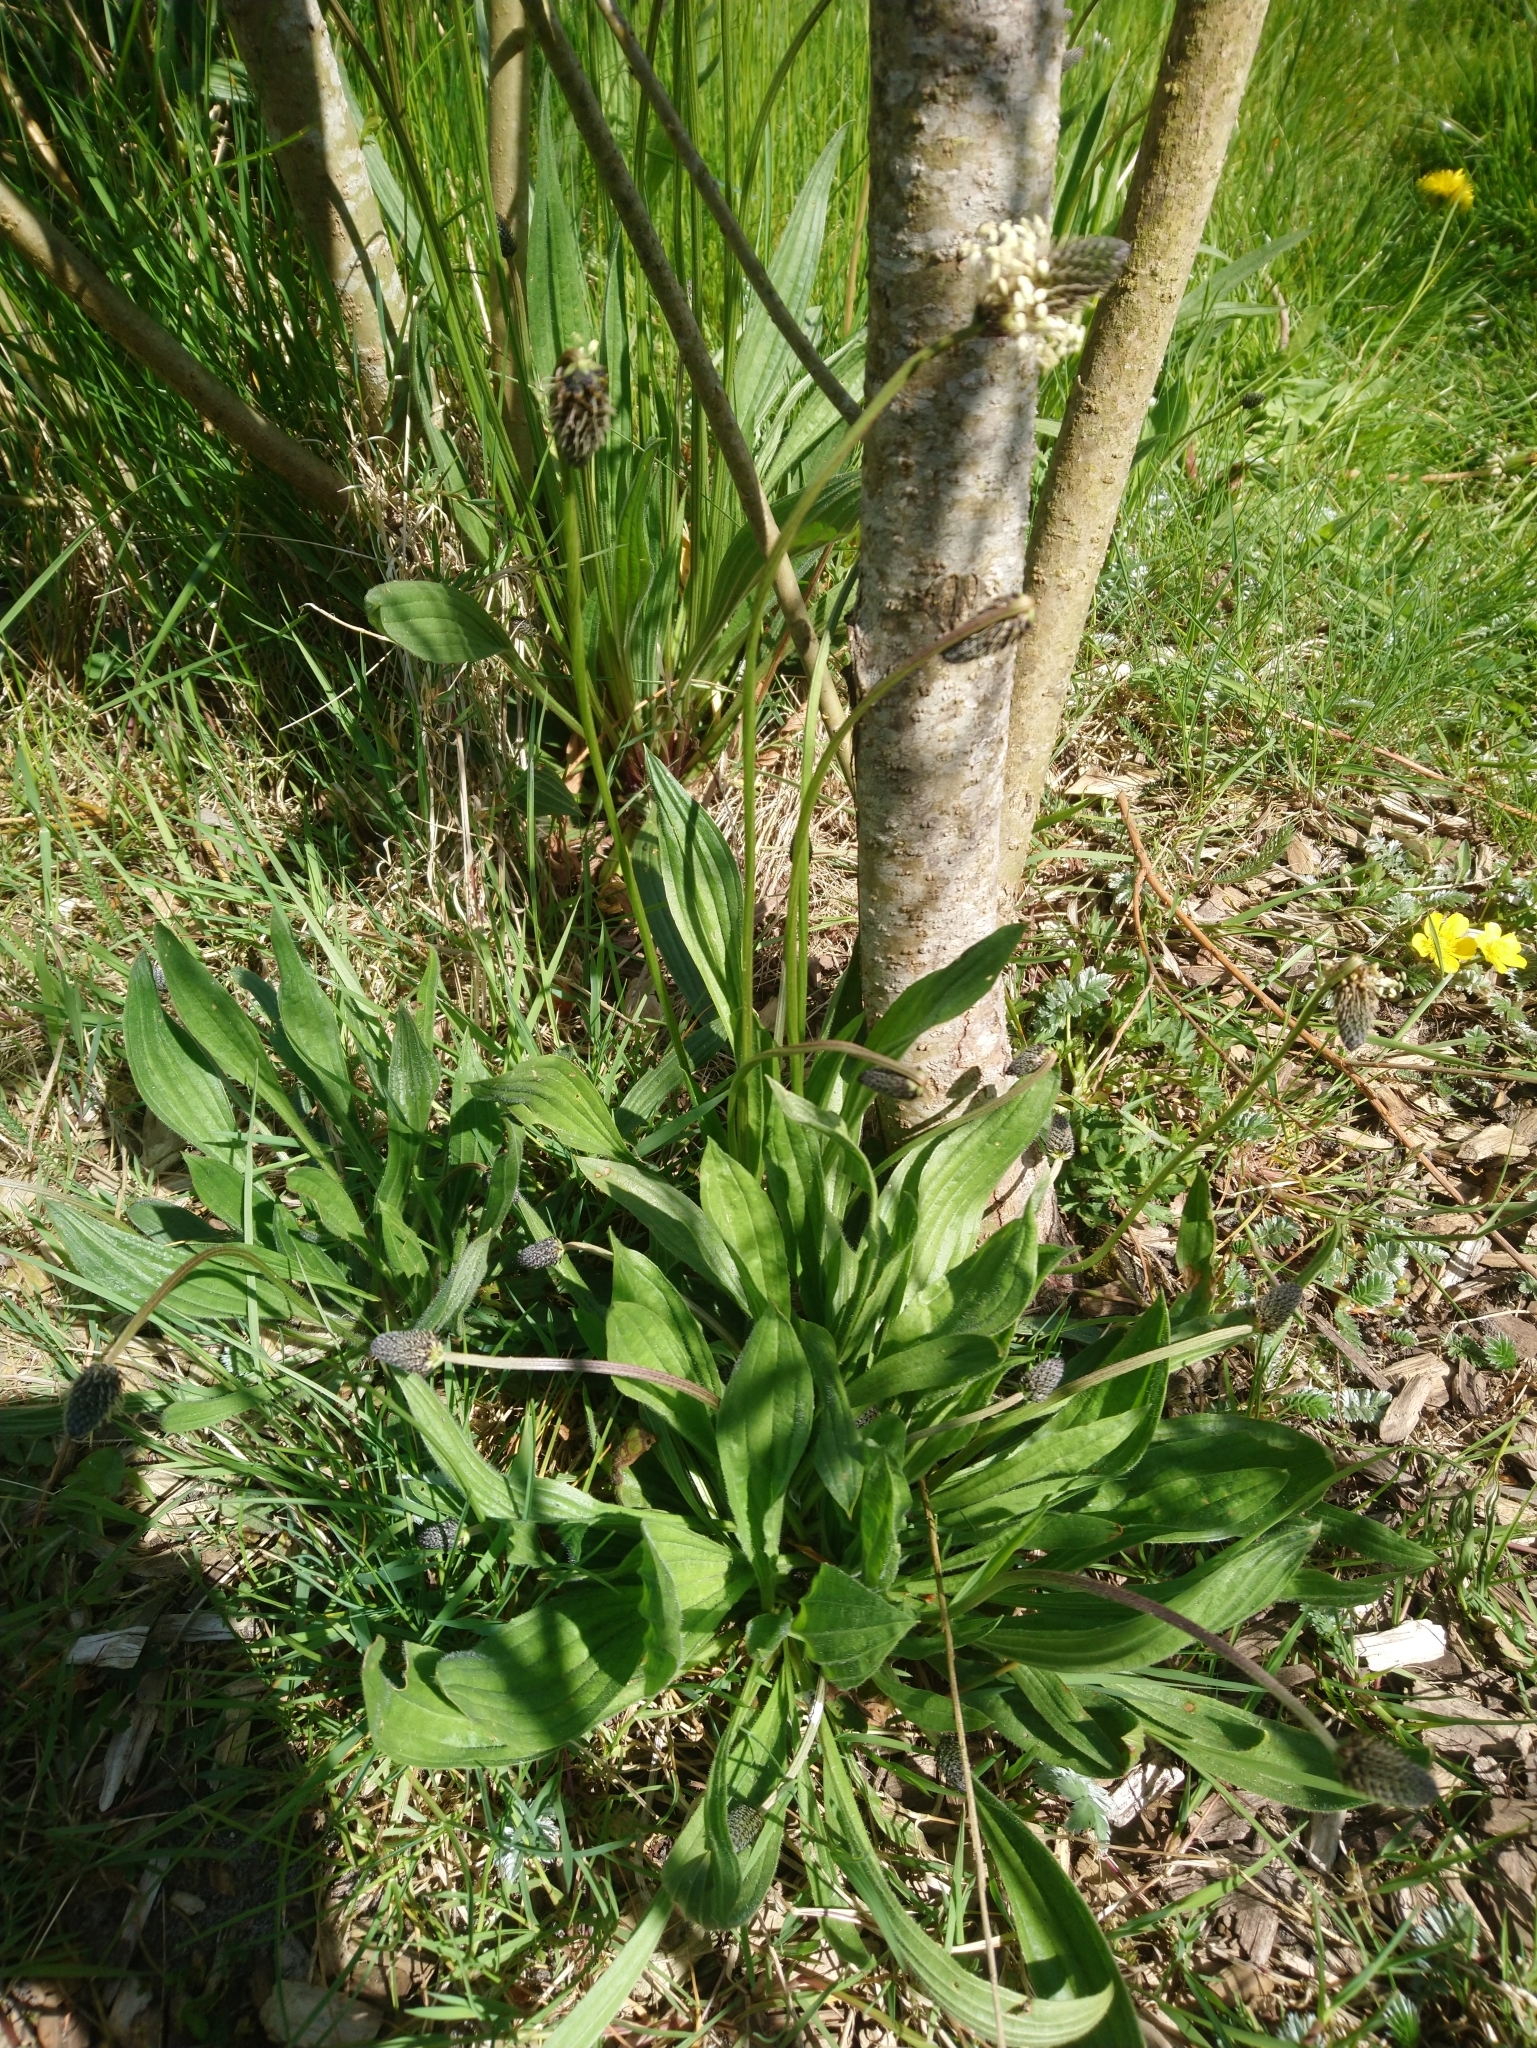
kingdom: Plantae
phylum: Tracheophyta
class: Magnoliopsida
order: Lamiales
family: Plantaginaceae
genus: Plantago
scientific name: Plantago lanceolata
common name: Ribwort plantain
